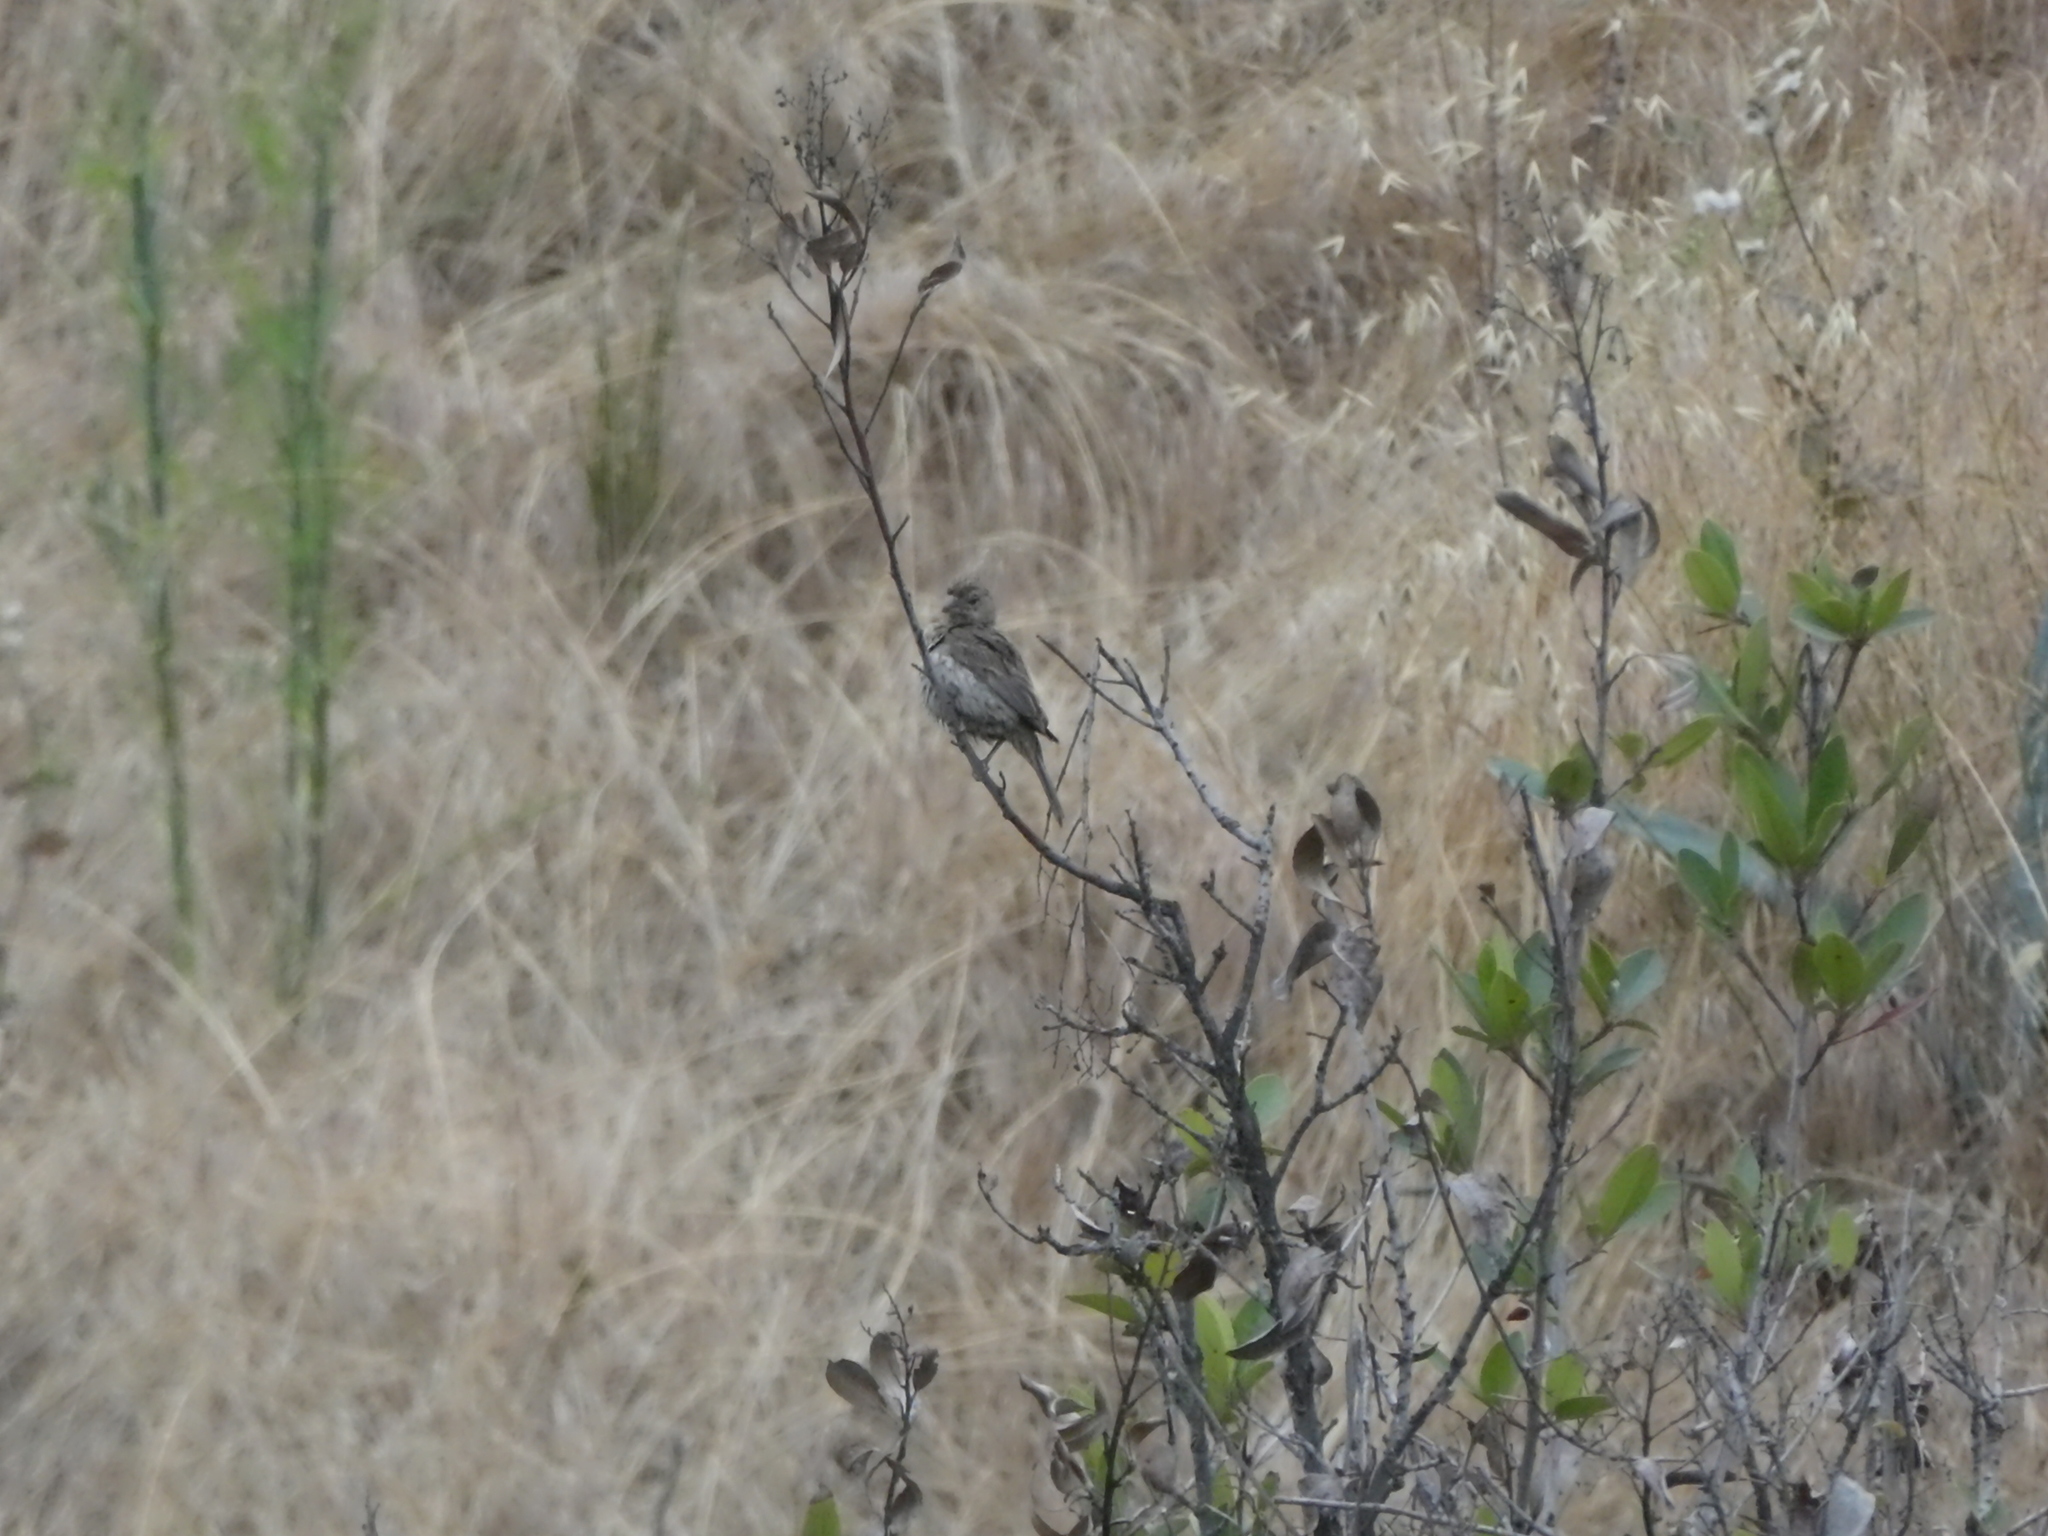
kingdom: Animalia
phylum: Chordata
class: Aves
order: Passeriformes
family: Fringillidae
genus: Haemorhous
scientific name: Haemorhous mexicanus
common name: House finch
